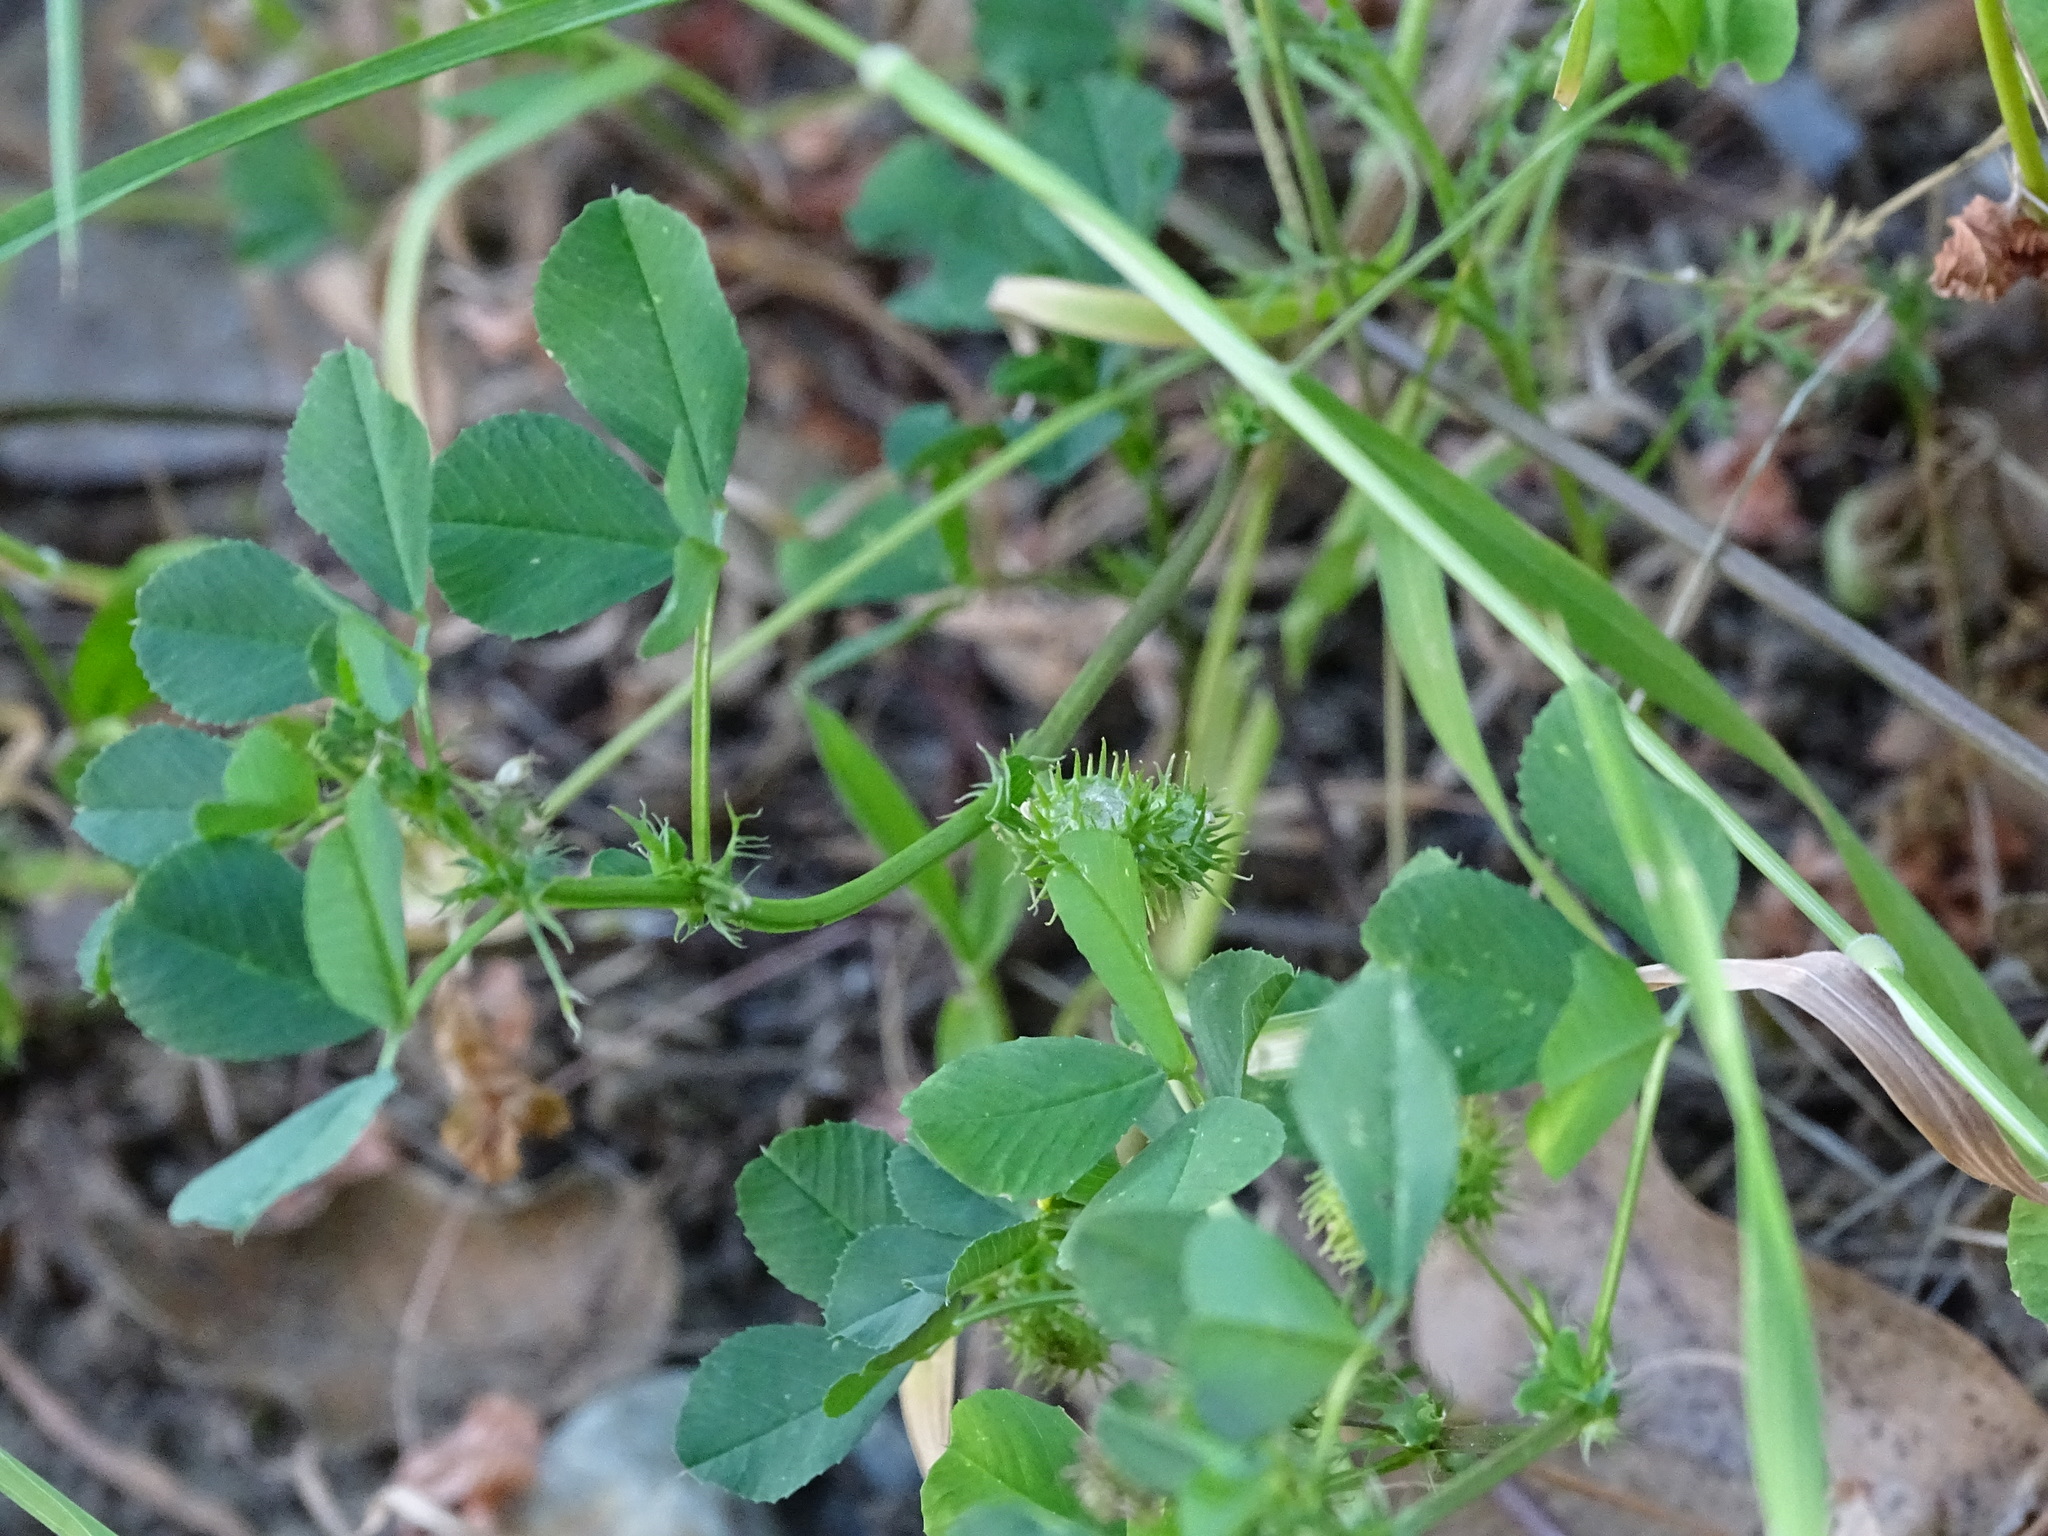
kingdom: Plantae
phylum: Tracheophyta
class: Magnoliopsida
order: Fabales
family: Fabaceae
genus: Medicago
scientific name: Medicago polymorpha
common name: Burclover
